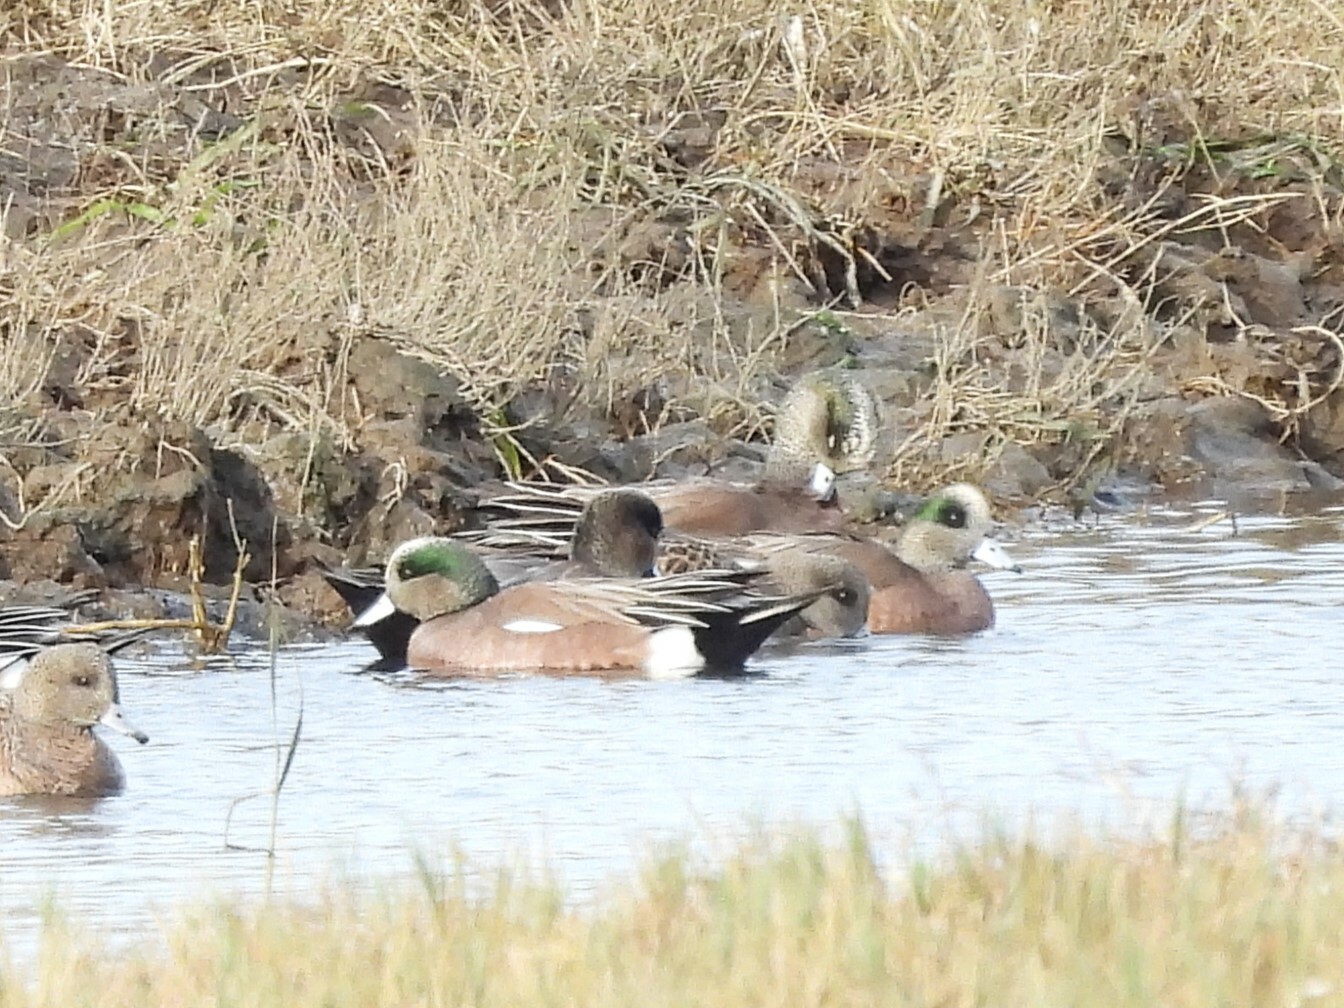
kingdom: Animalia
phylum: Chordata
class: Aves
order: Anseriformes
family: Anatidae
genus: Mareca
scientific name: Mareca americana
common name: American wigeon
